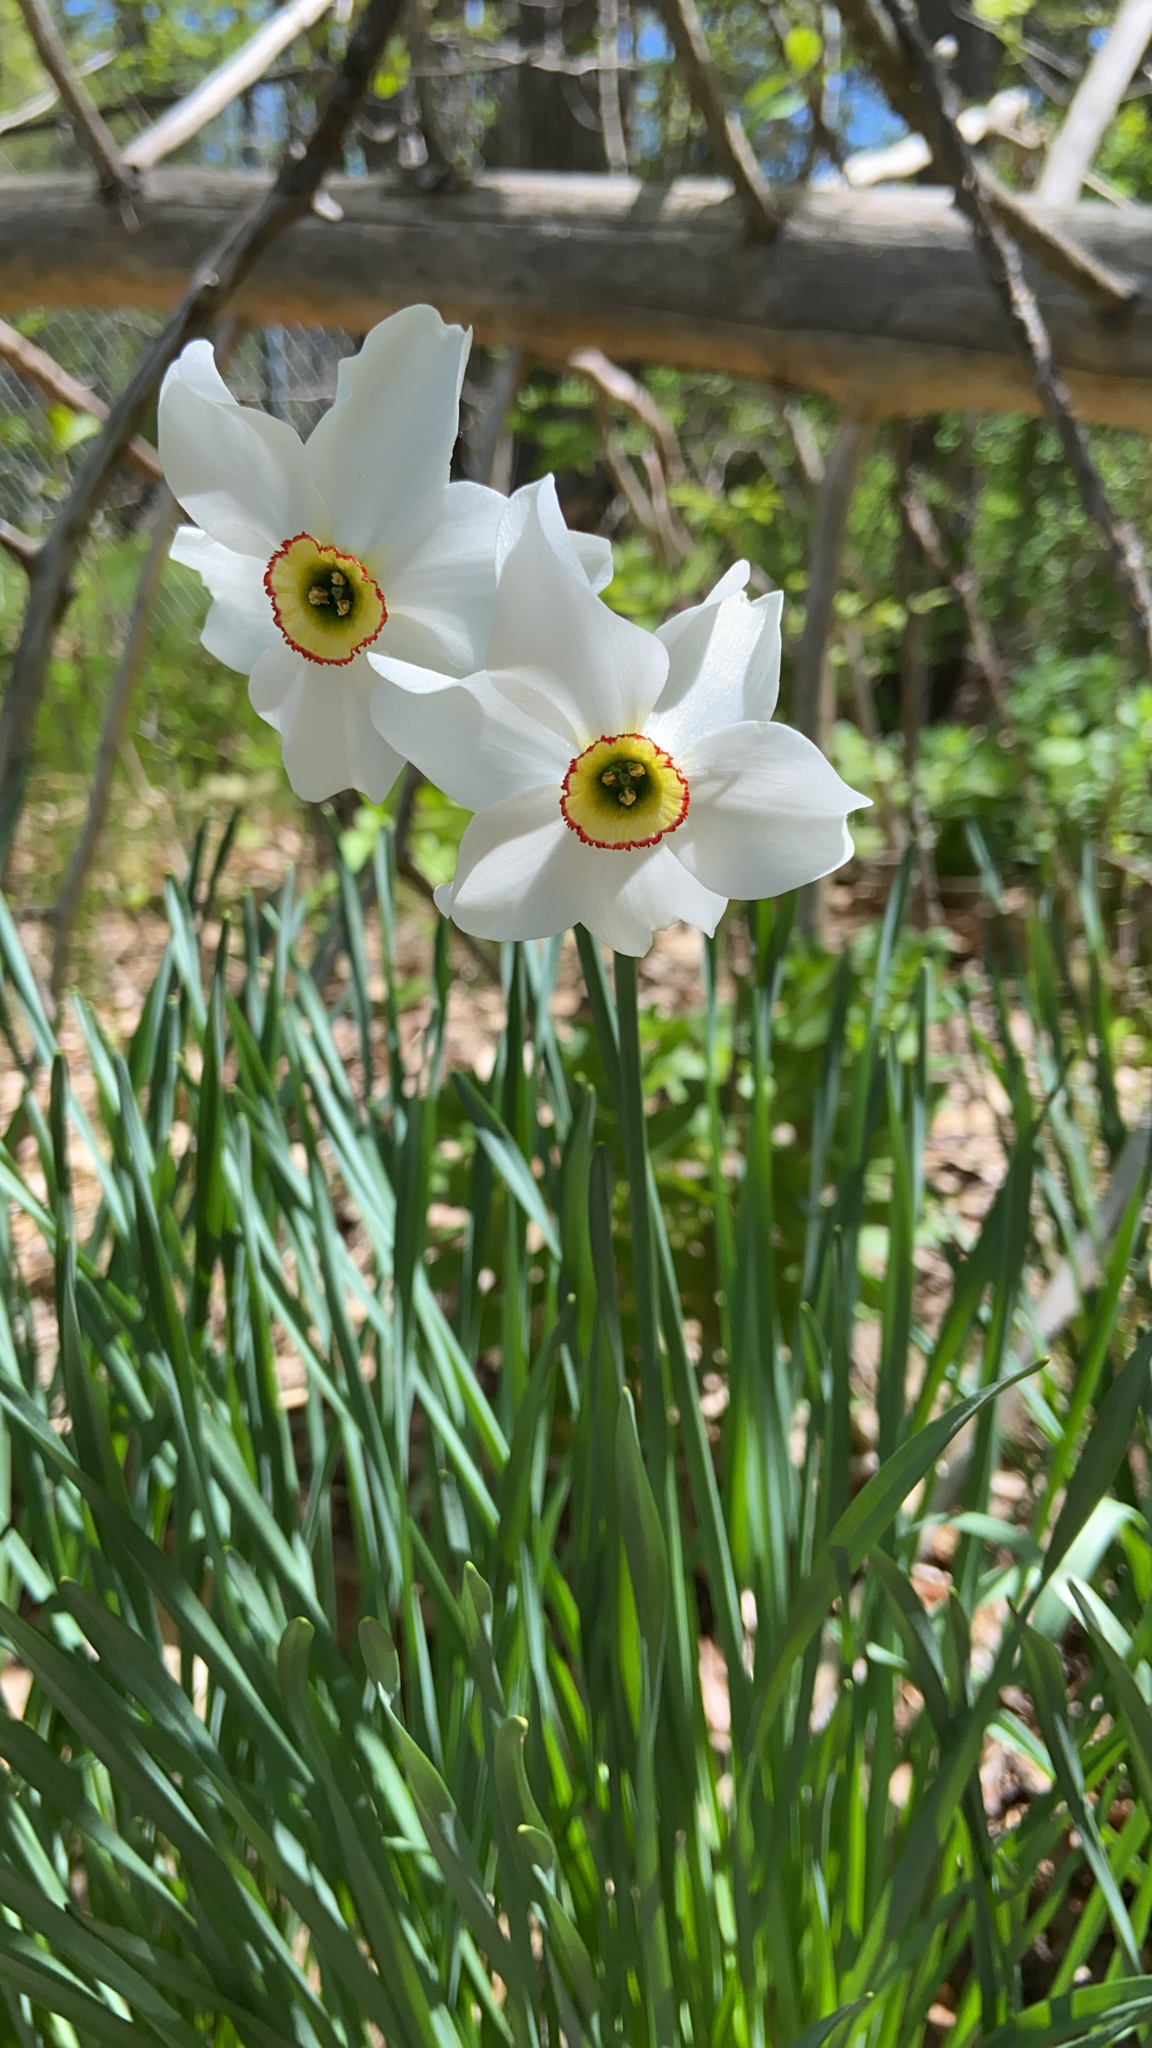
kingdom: Plantae
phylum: Tracheophyta
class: Liliopsida
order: Asparagales
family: Amaryllidaceae
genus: Narcissus
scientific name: Narcissus poeticus
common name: Pheasant's-eye daffodil
